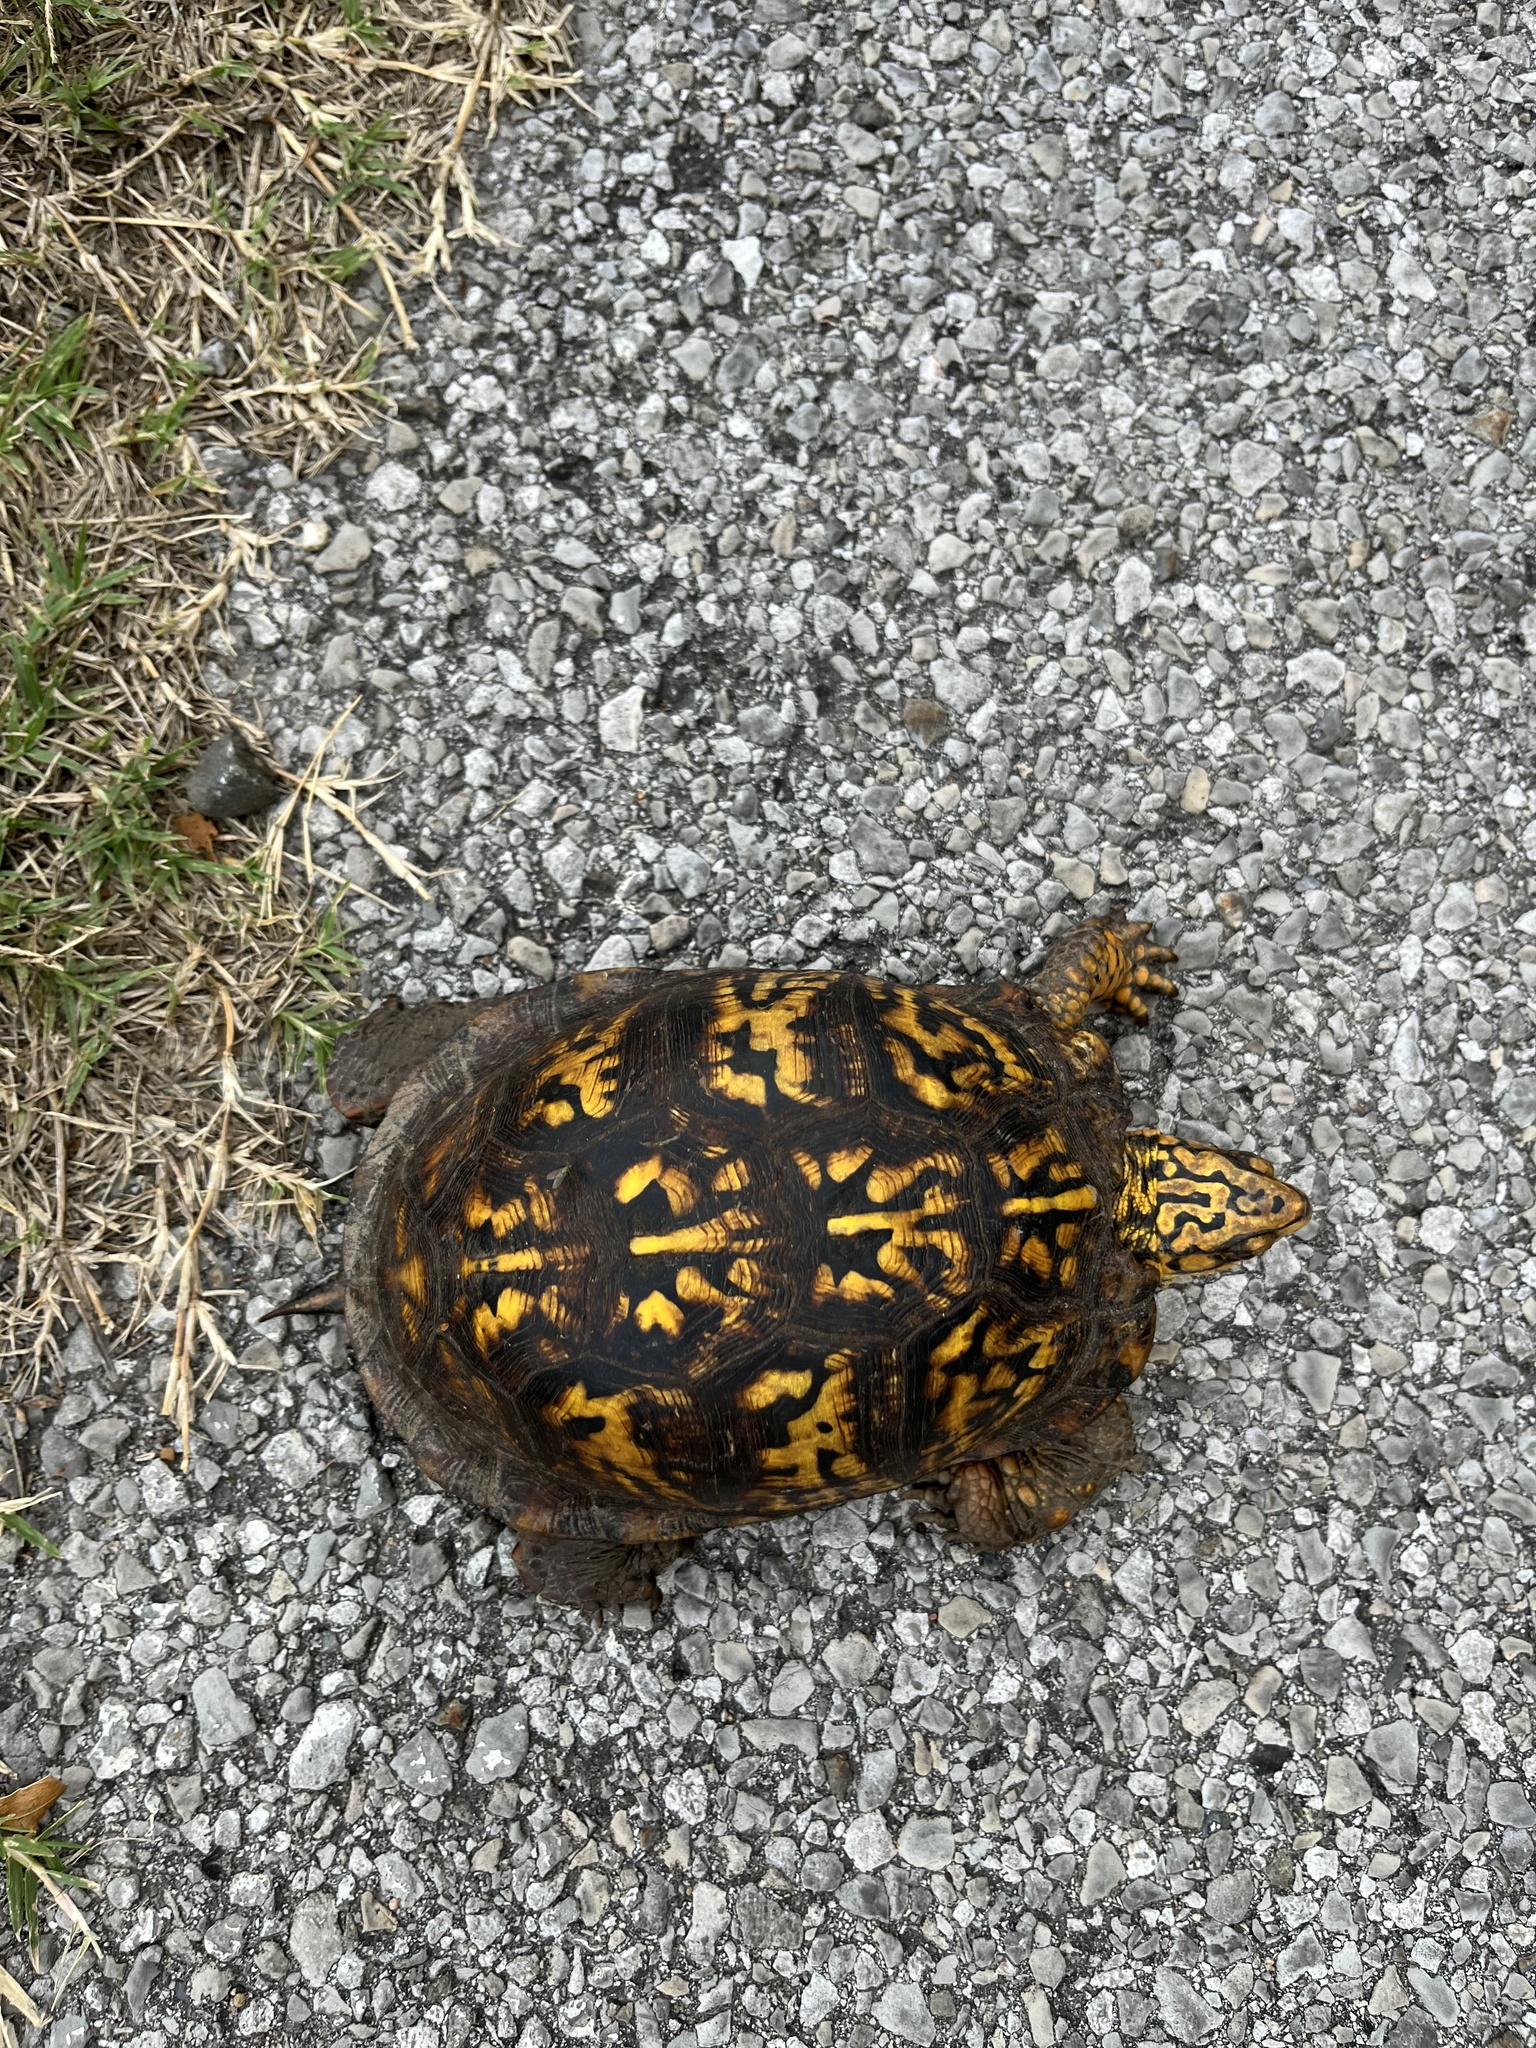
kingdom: Animalia
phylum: Chordata
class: Testudines
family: Emydidae
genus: Terrapene
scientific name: Terrapene carolina
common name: Common box turtle
